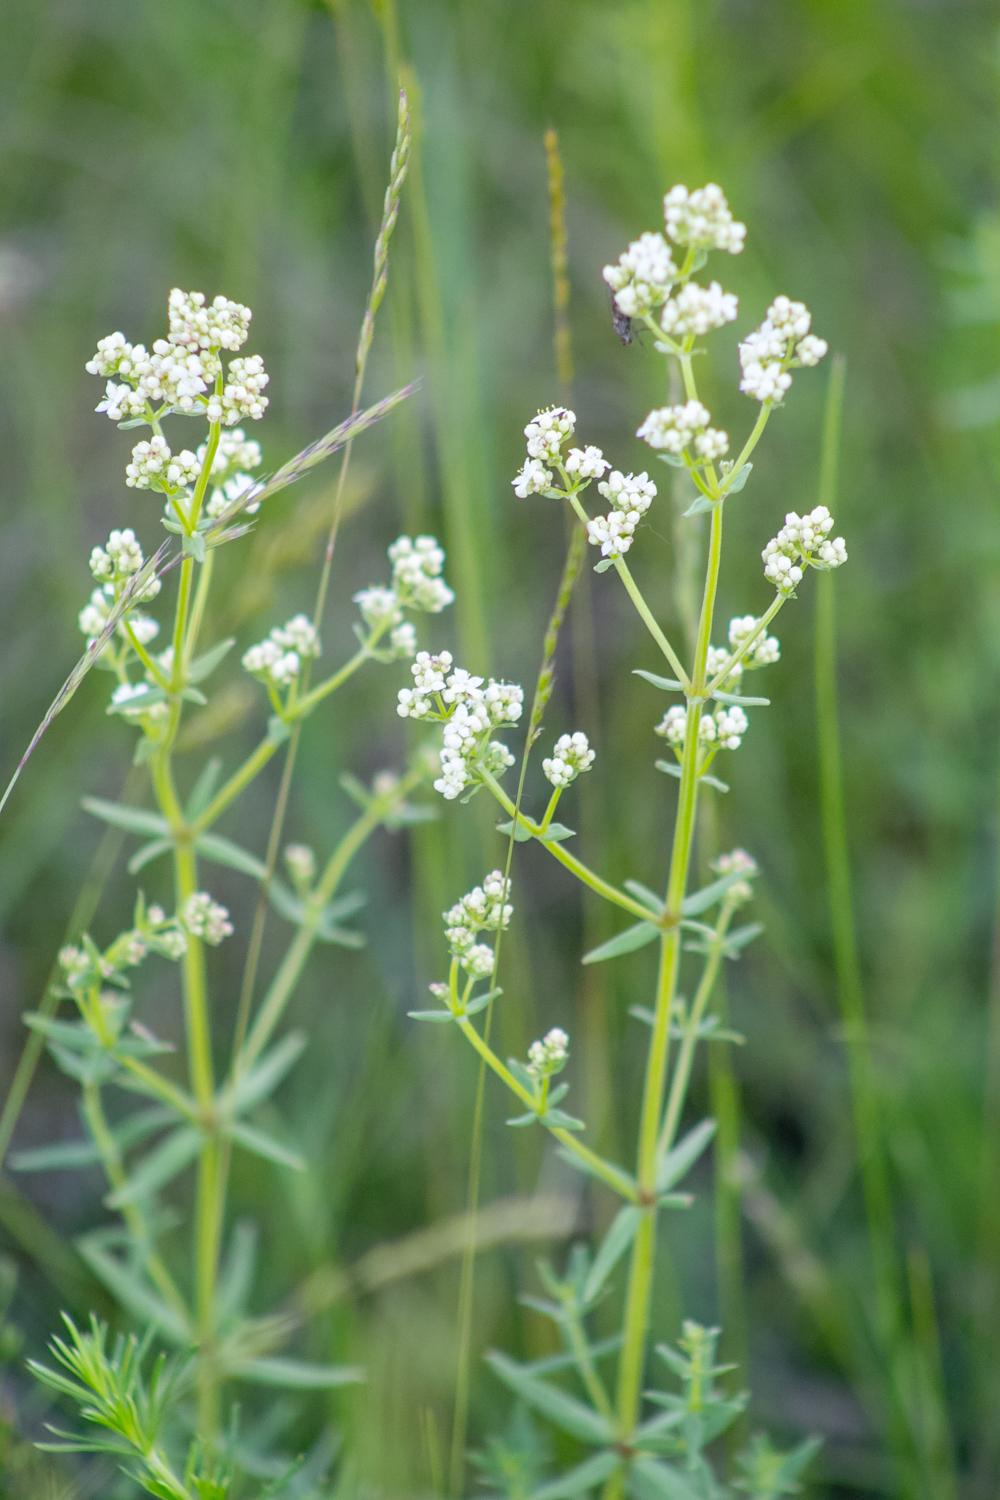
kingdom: Plantae
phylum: Tracheophyta
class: Magnoliopsida
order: Gentianales
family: Rubiaceae
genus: Galium
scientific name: Galium boreale
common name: Northern bedstraw
